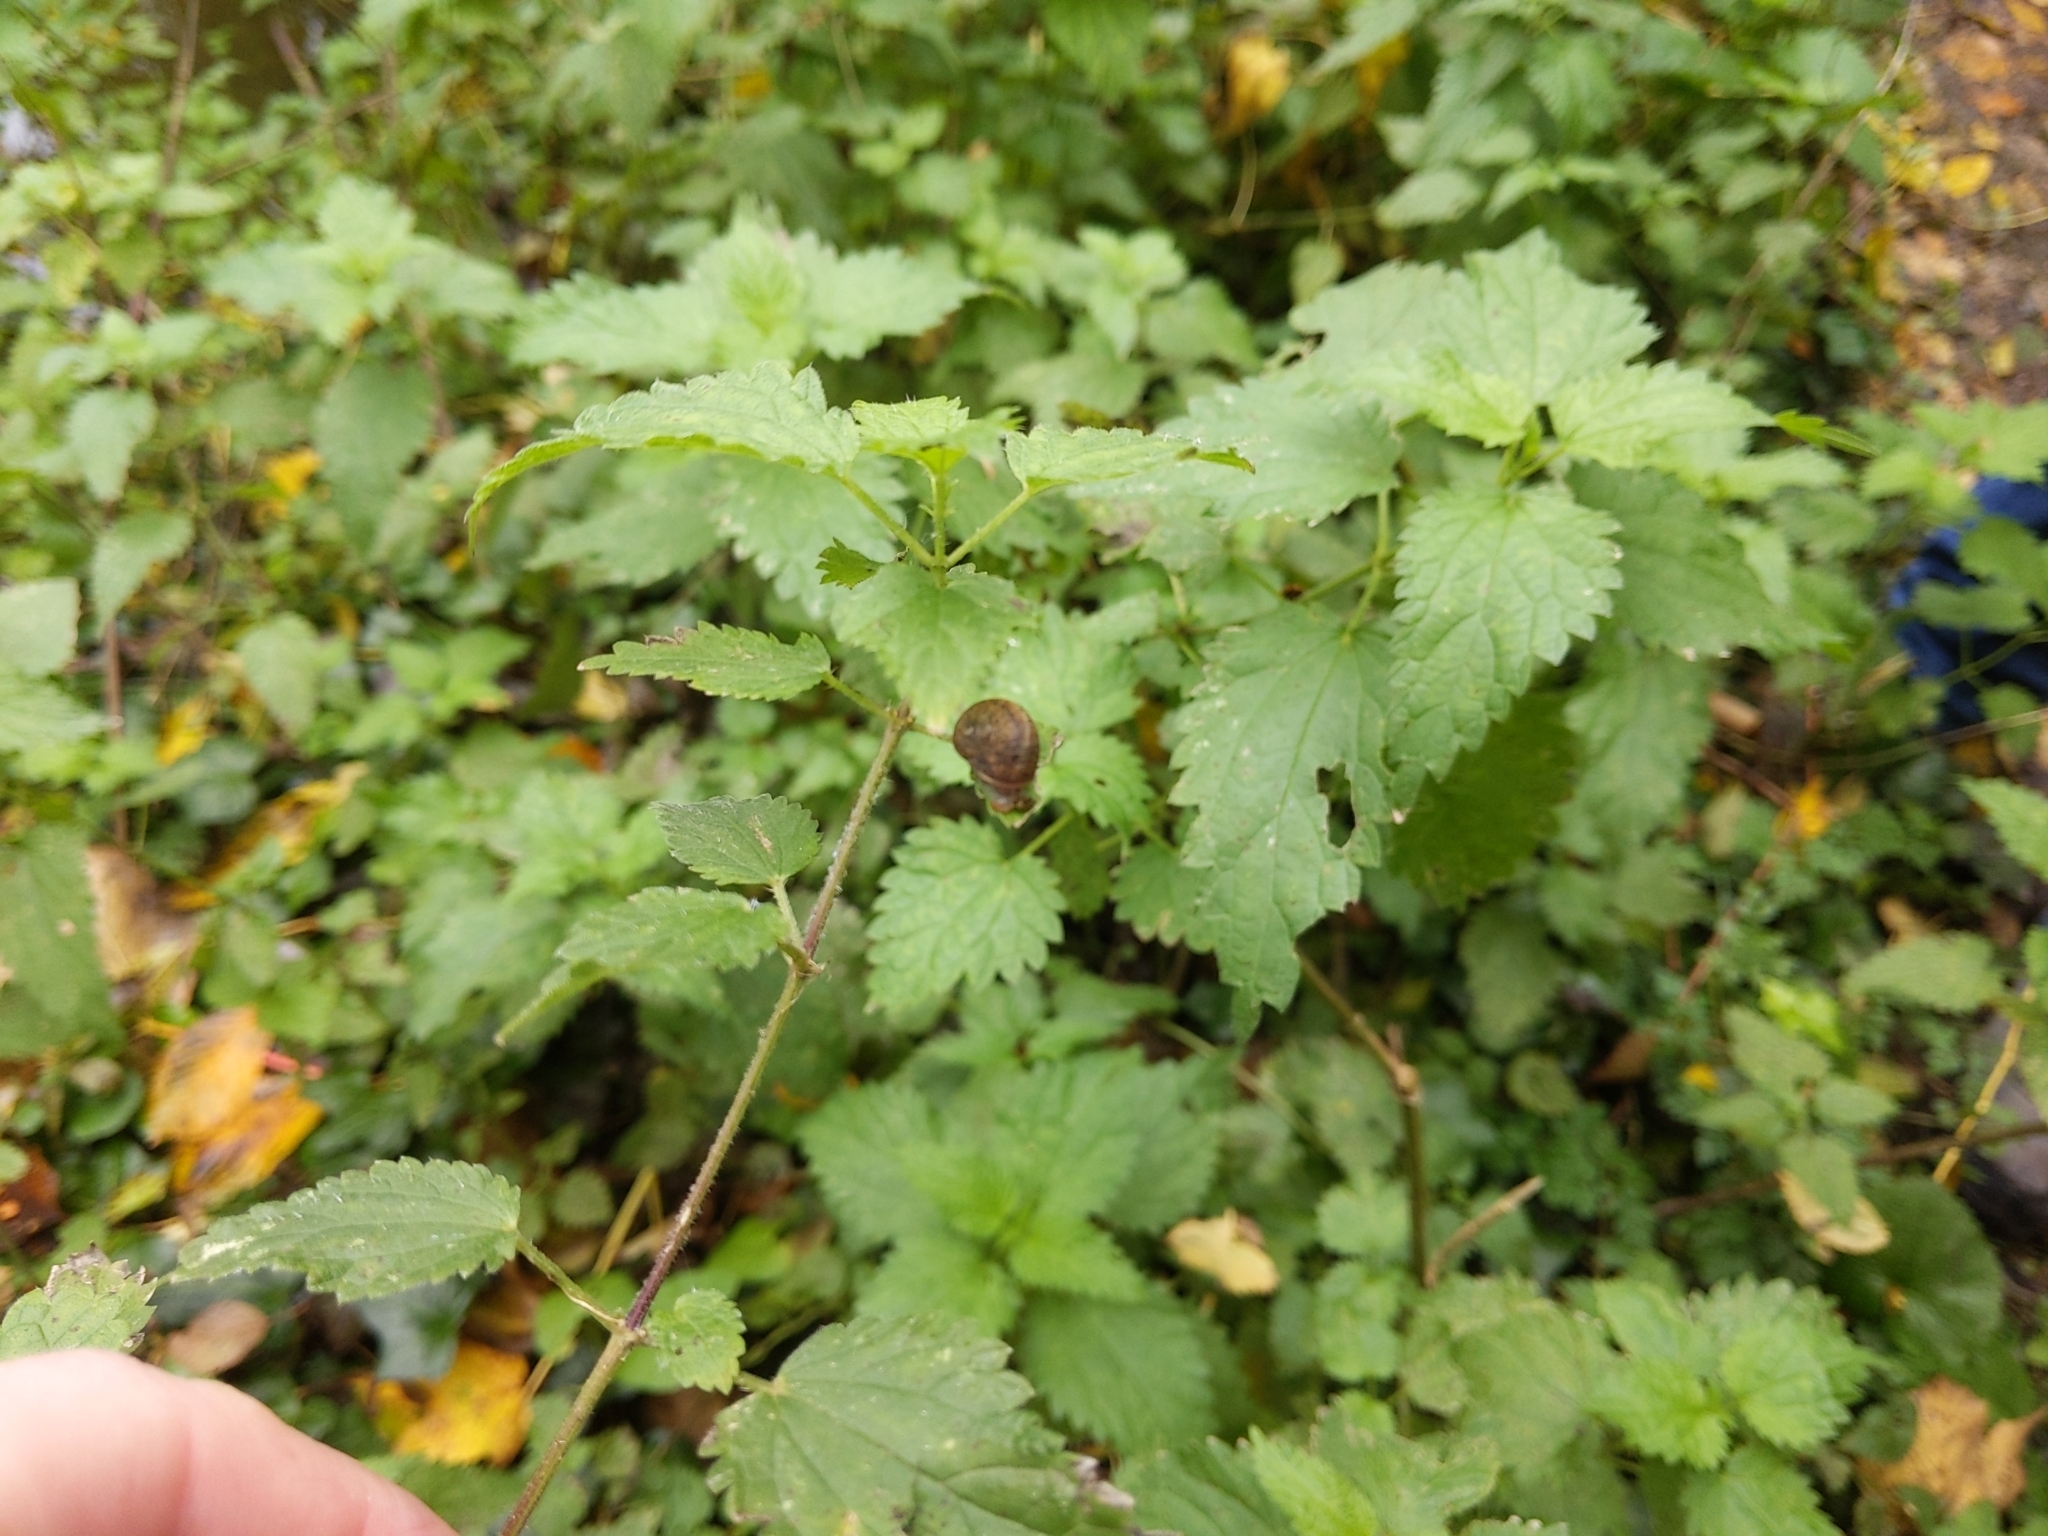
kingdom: Animalia
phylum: Mollusca
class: Gastropoda
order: Stylommatophora
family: Helicidae
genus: Cornu
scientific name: Cornu aspersum
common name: Brown garden snail
